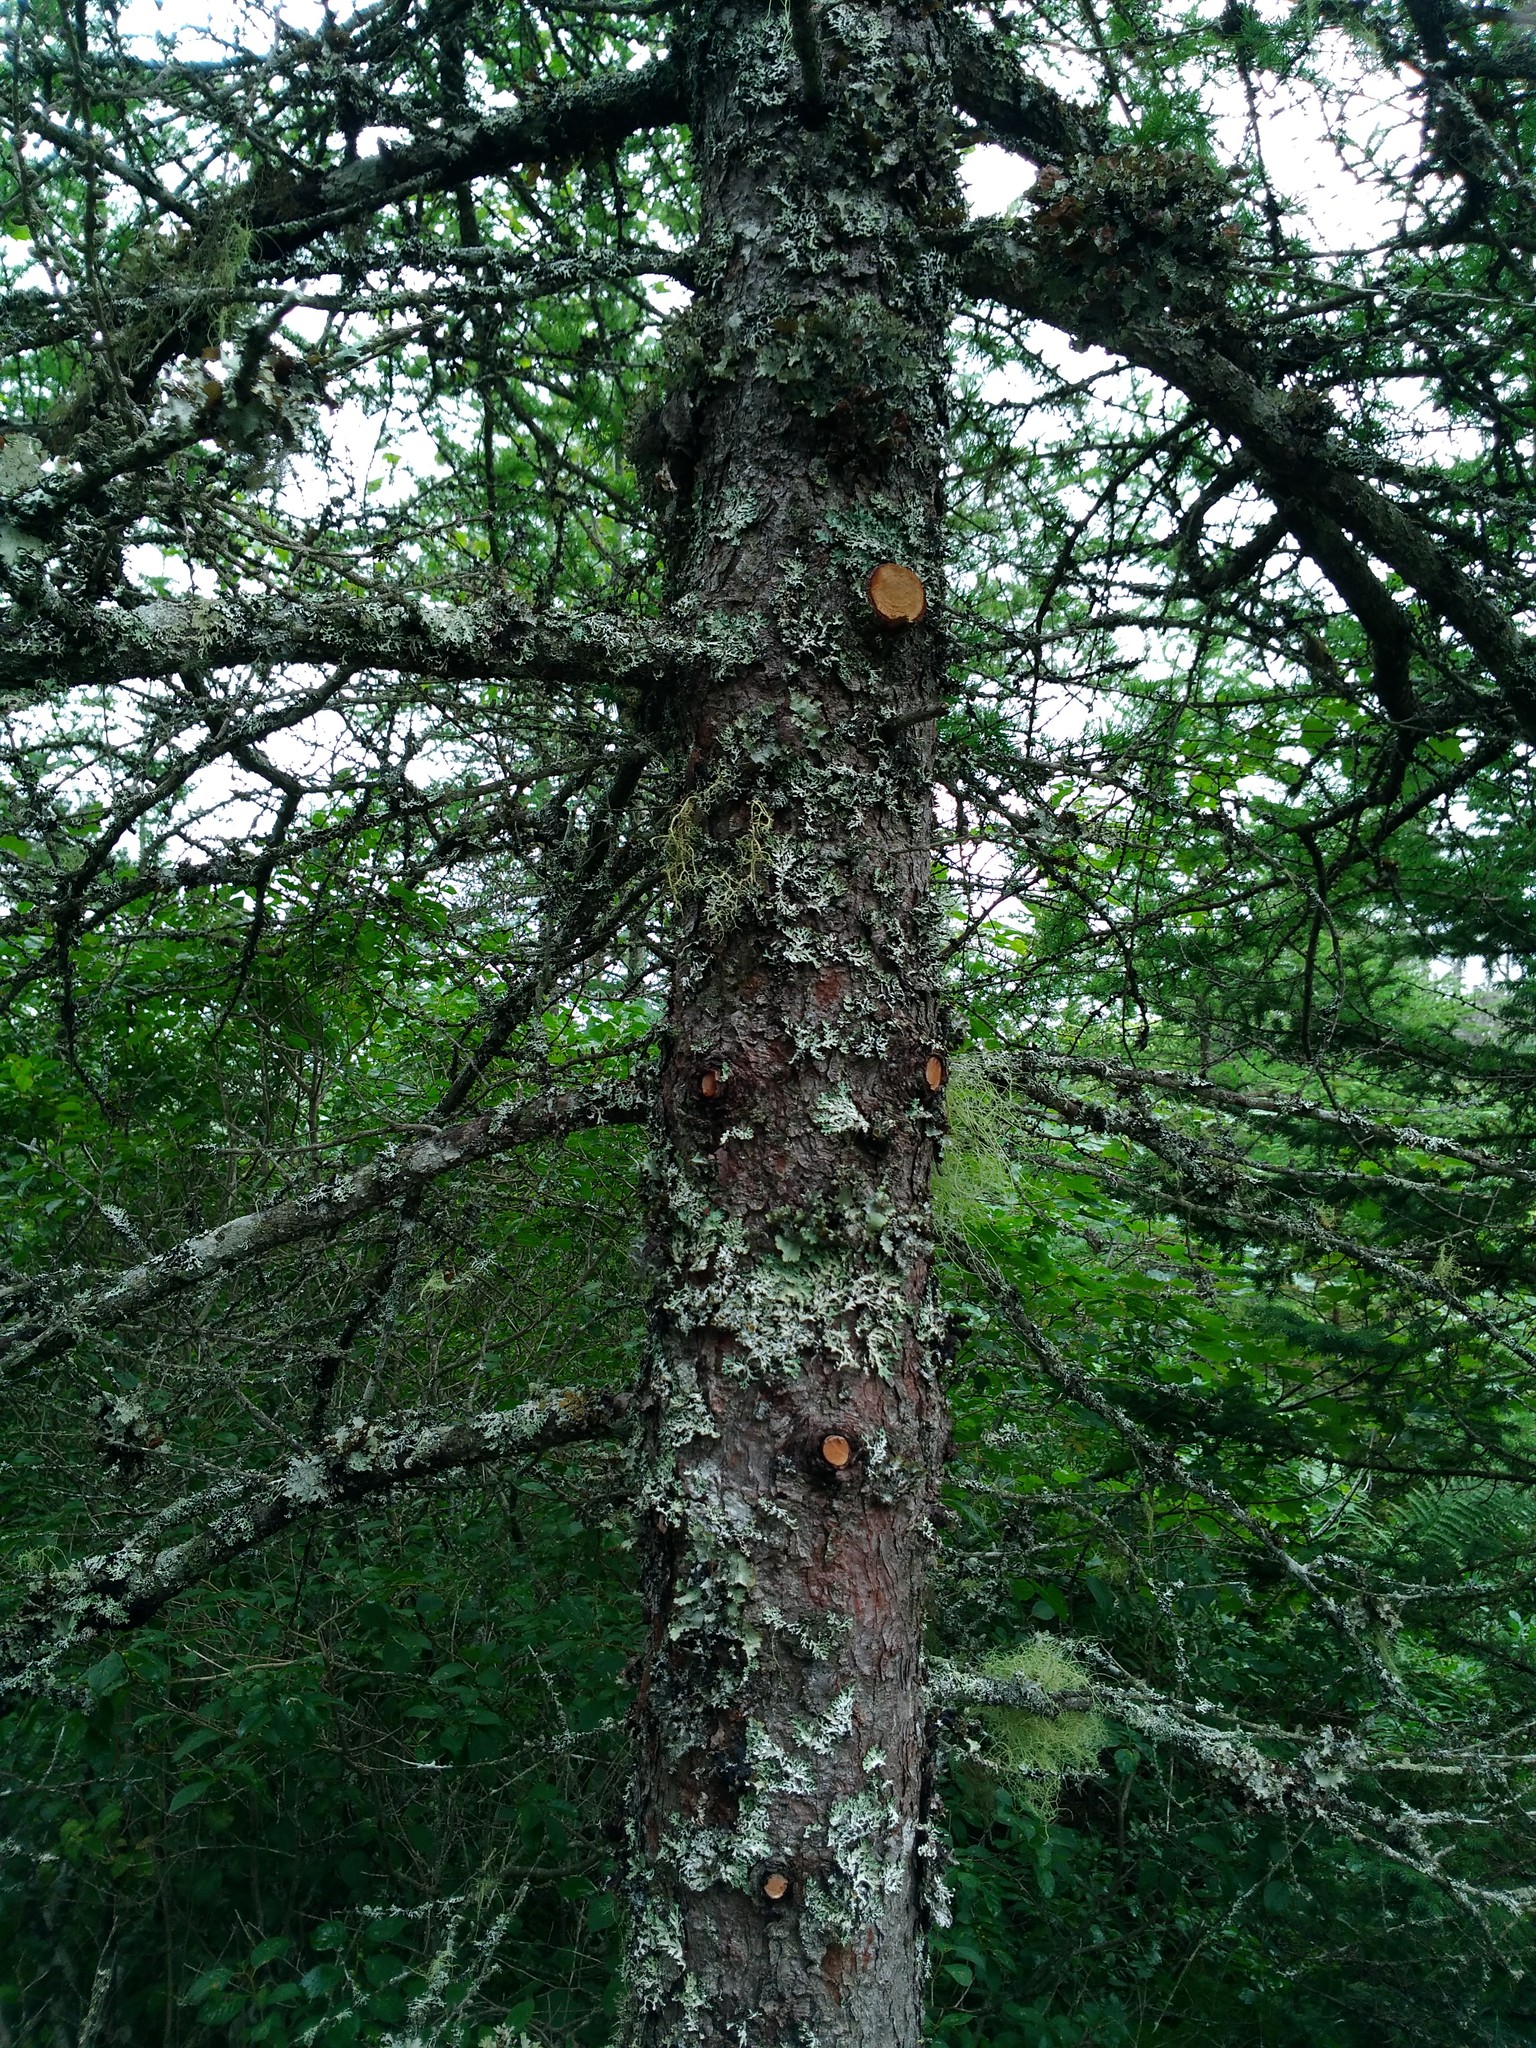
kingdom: Plantae
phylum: Tracheophyta
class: Pinopsida
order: Pinales
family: Pinaceae
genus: Larix
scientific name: Larix laricina
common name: American larch
